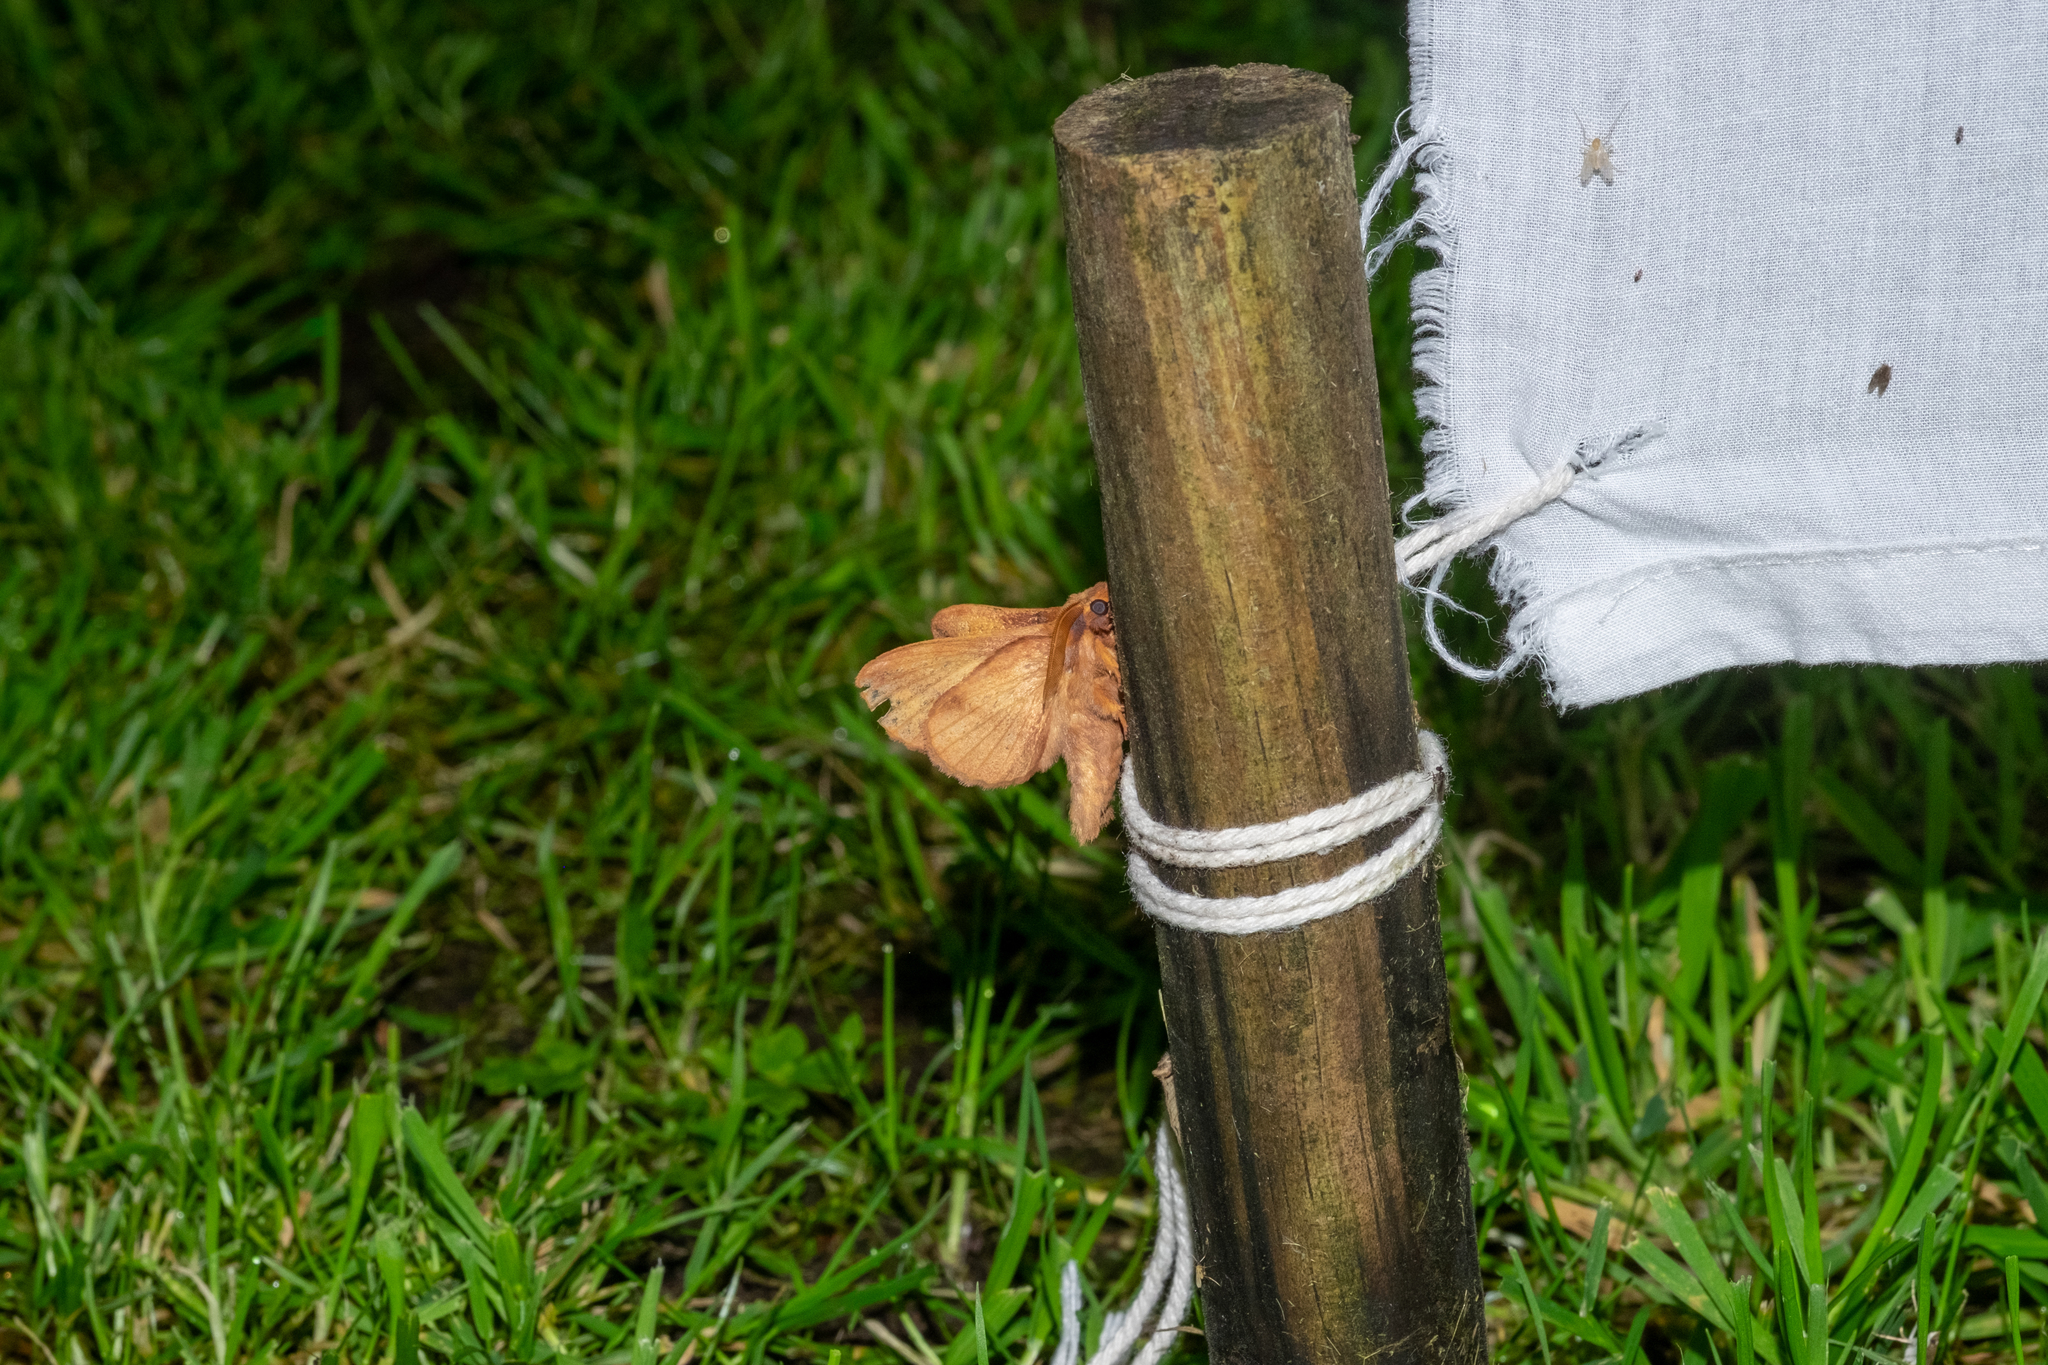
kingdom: Animalia
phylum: Arthropoda
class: Insecta
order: Lepidoptera
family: Lasiocampidae
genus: Euthrix
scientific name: Euthrix potatoria
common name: Drinker
